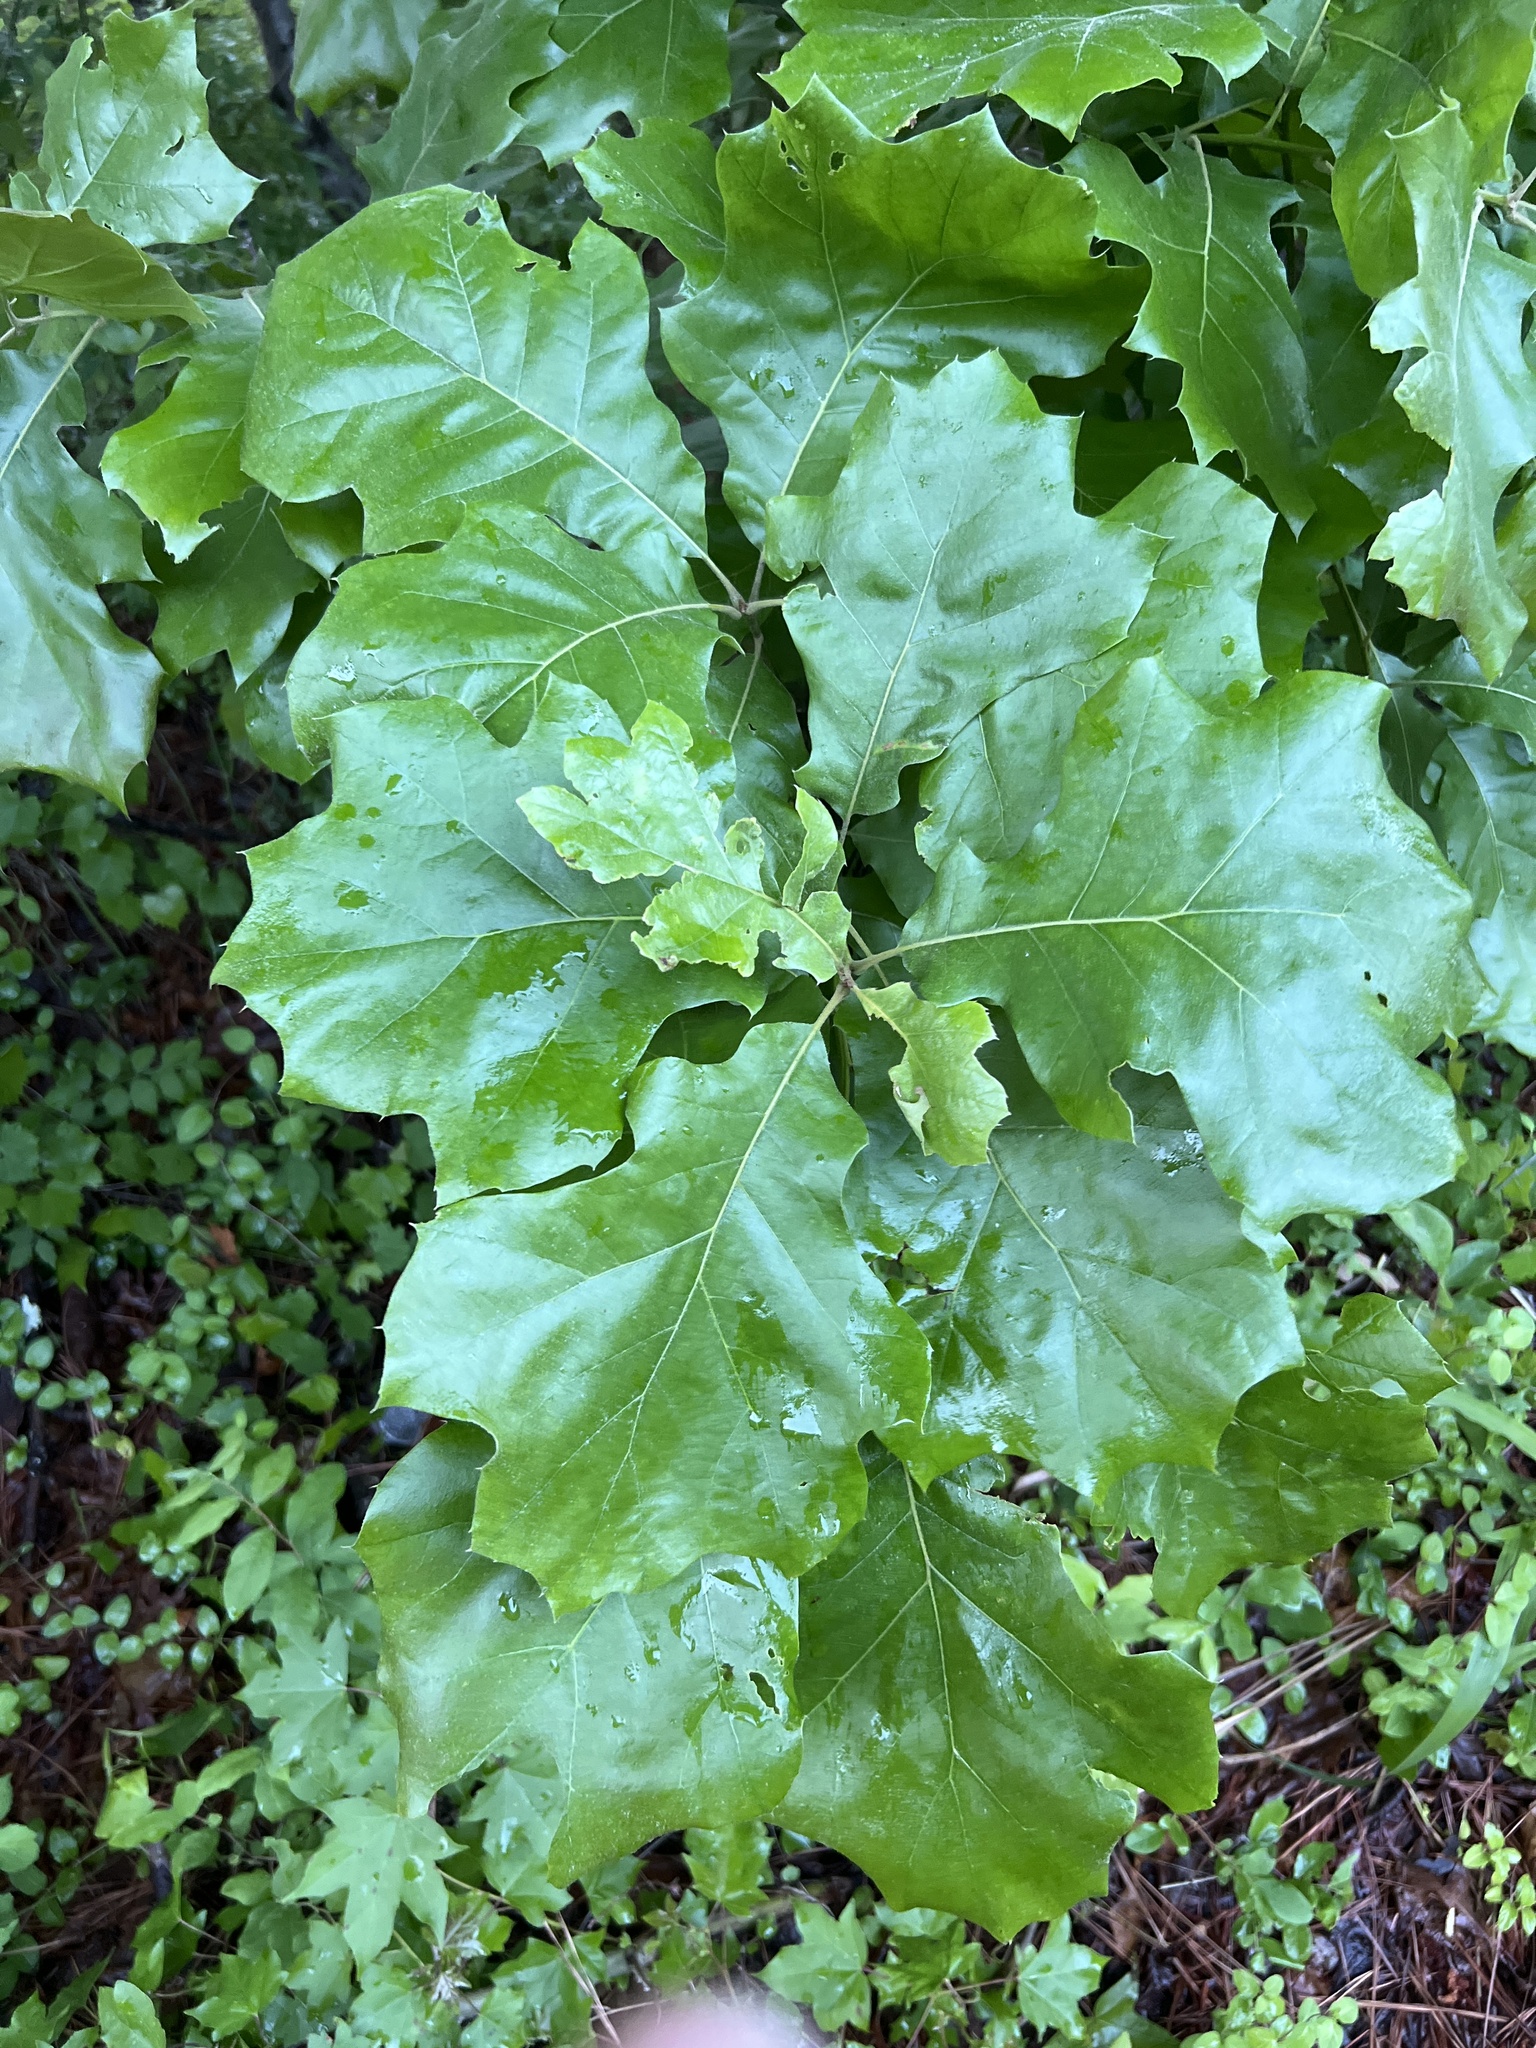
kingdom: Plantae
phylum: Tracheophyta
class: Magnoliopsida
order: Fagales
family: Fagaceae
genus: Quercus
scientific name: Quercus velutina
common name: Black oak
